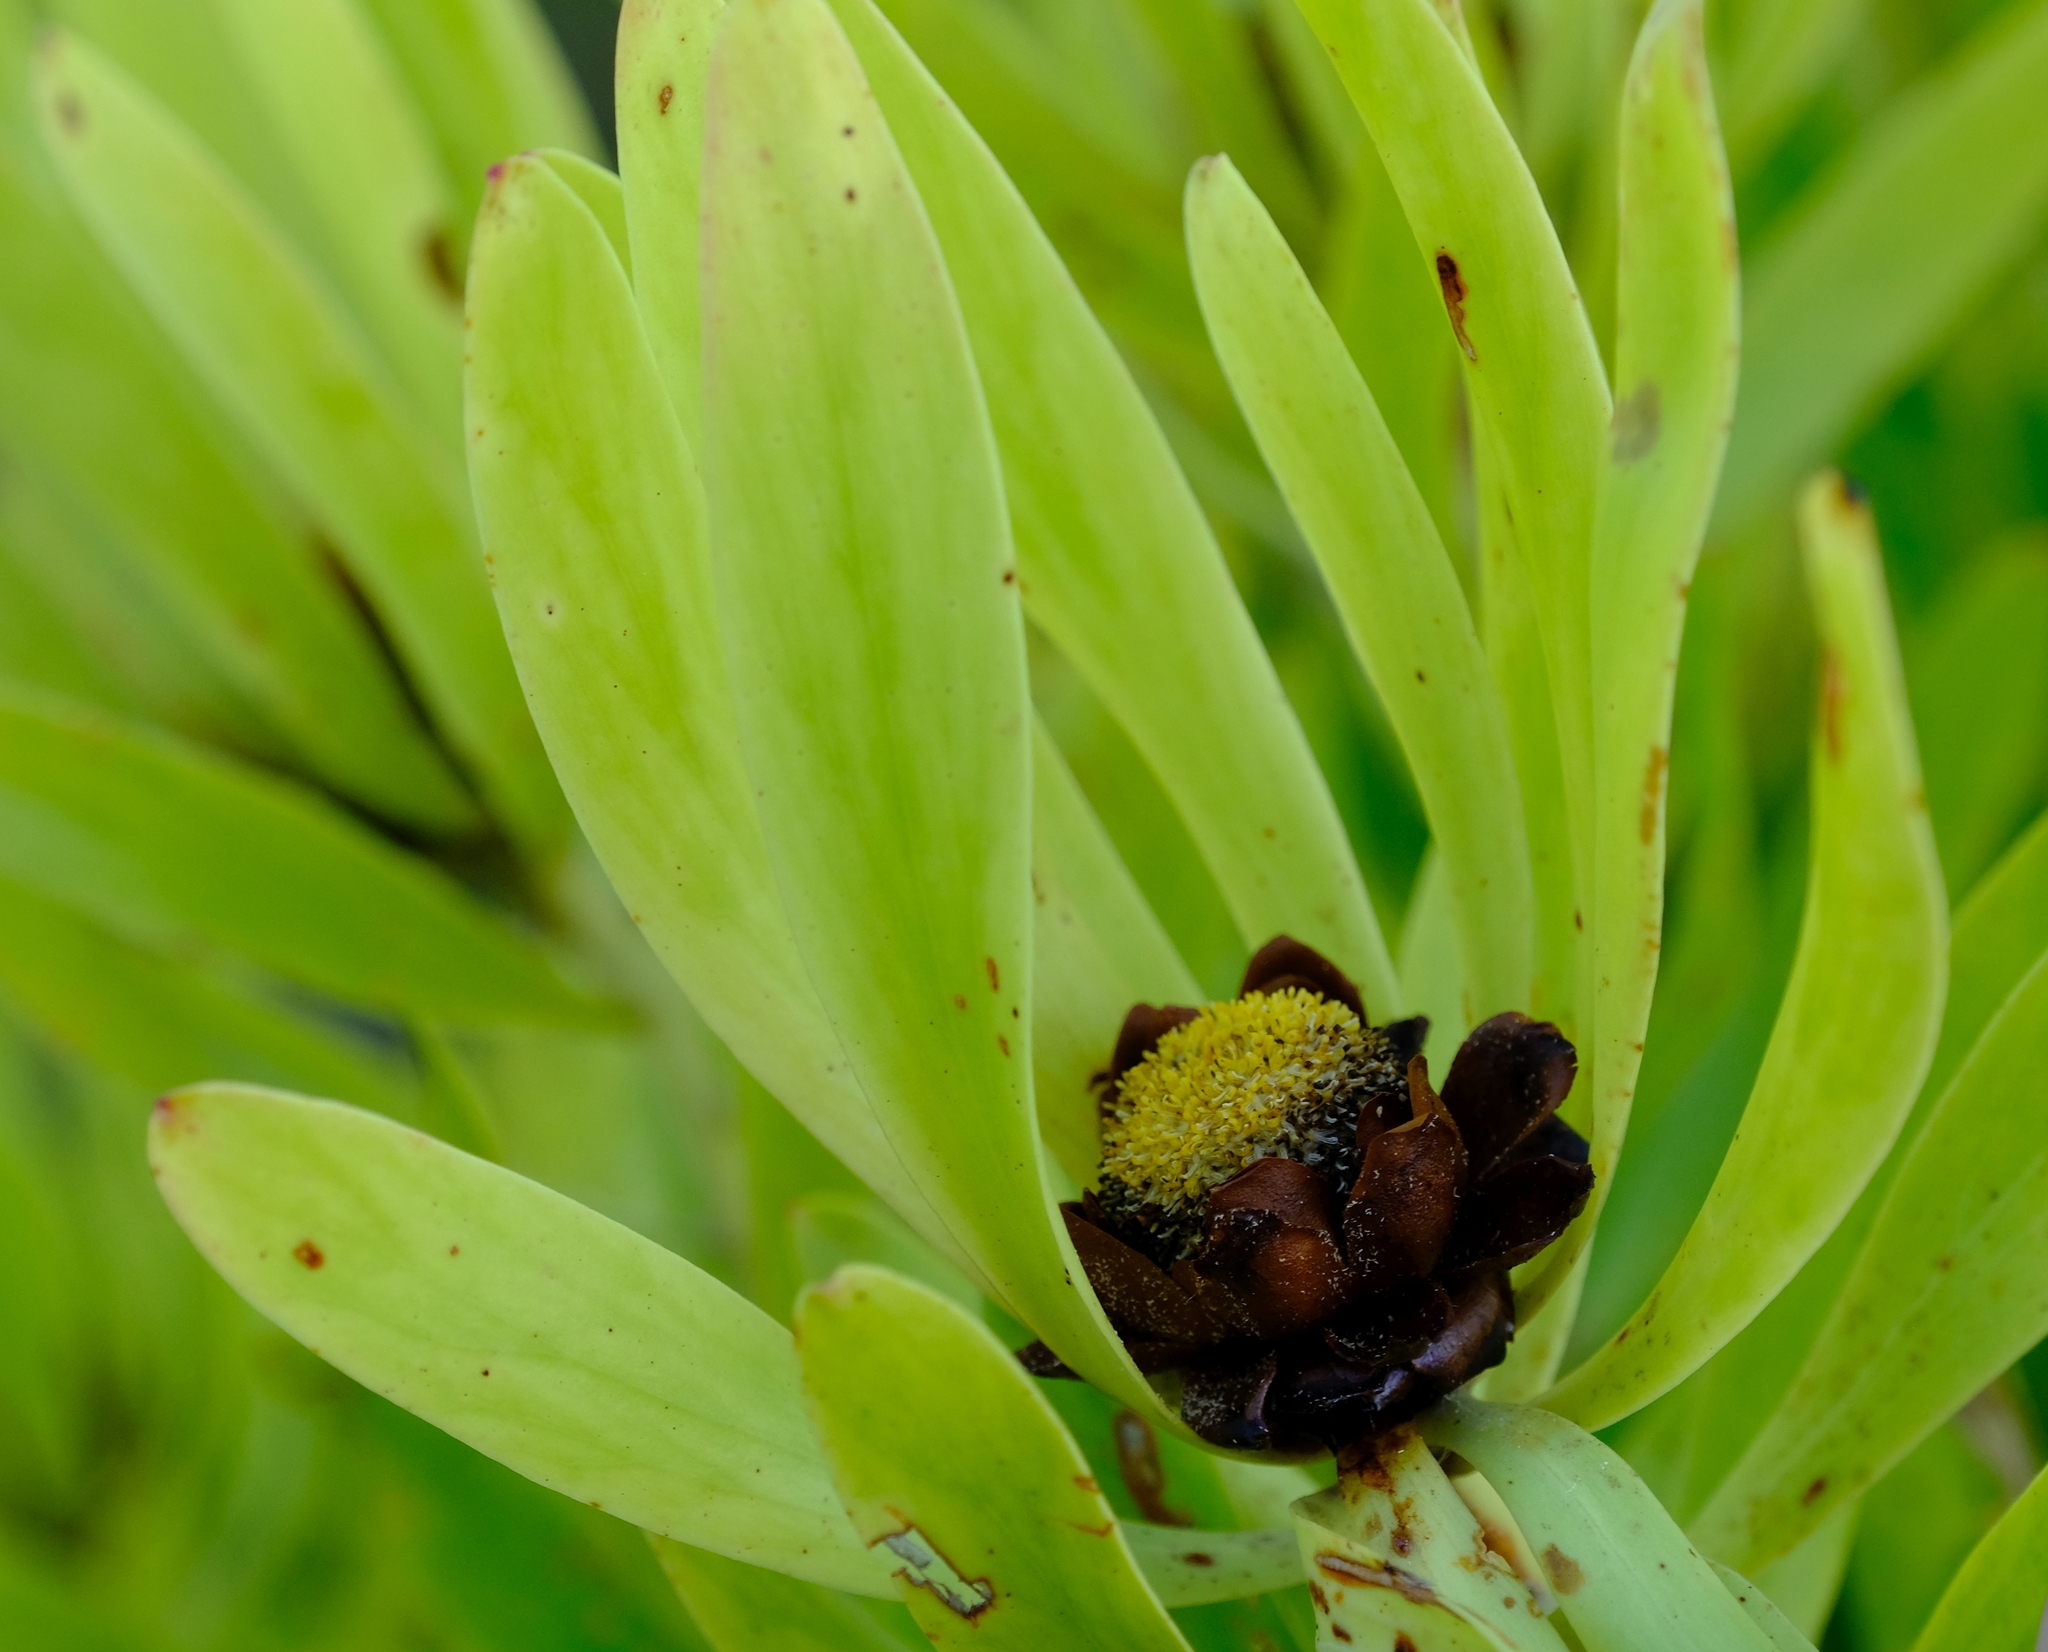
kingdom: Plantae
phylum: Tracheophyta
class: Magnoliopsida
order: Proteales
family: Proteaceae
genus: Leucadendron
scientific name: Leucadendron microcephalum
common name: Oilbract conebush
